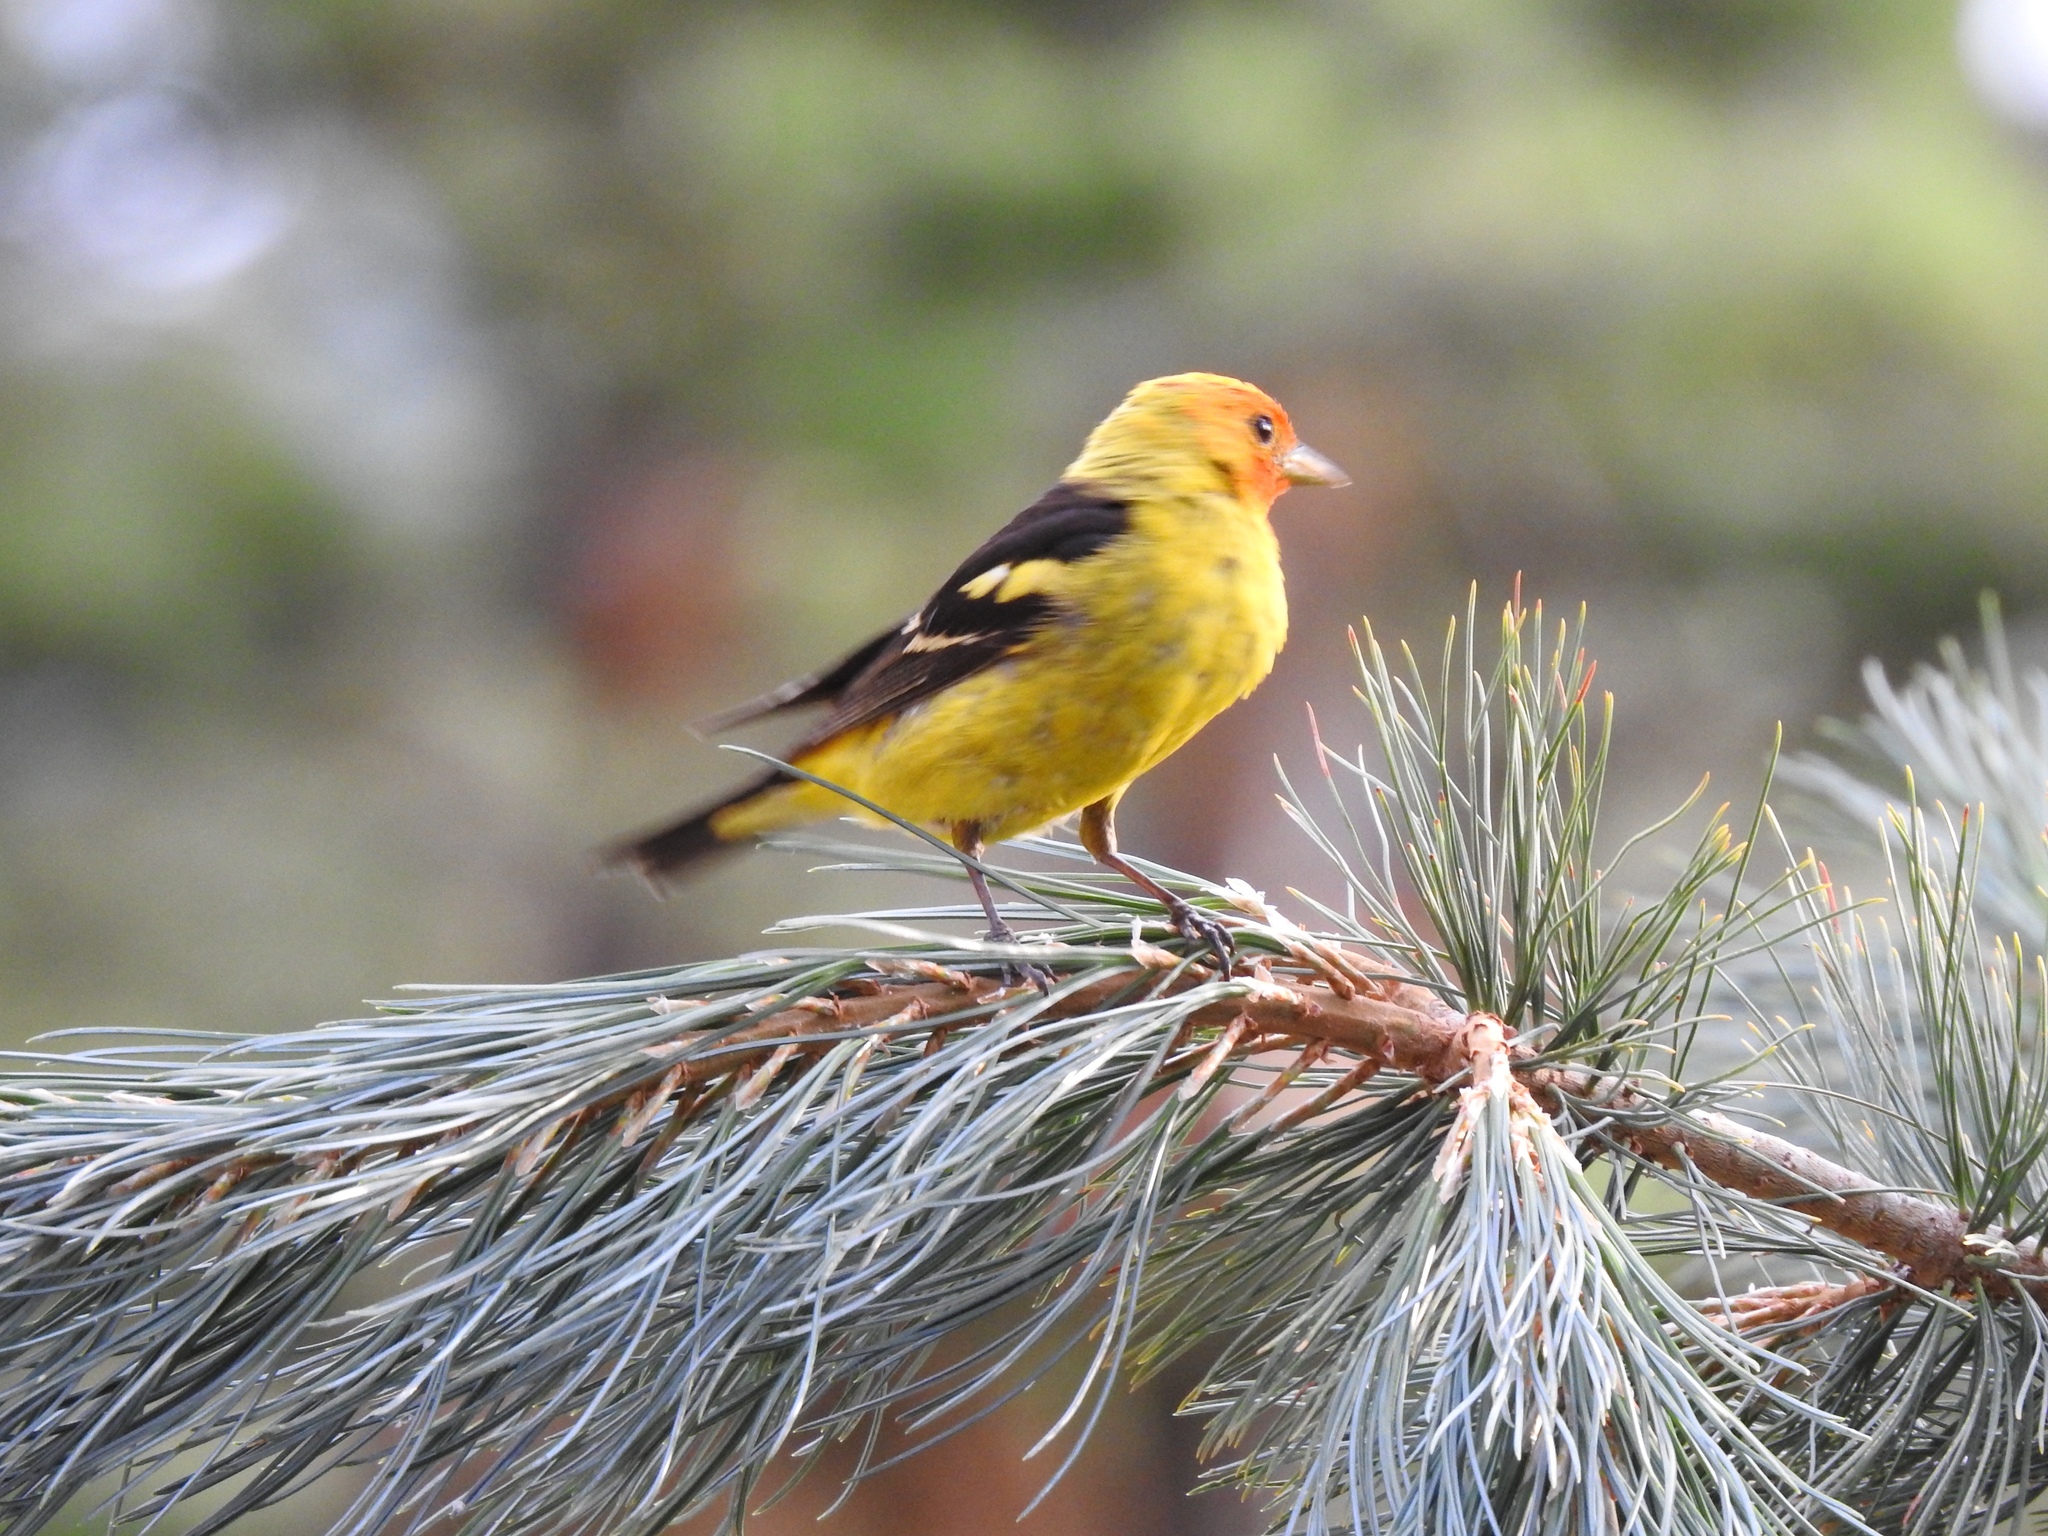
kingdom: Animalia
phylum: Chordata
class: Aves
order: Passeriformes
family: Cardinalidae
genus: Piranga
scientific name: Piranga ludoviciana
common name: Western tanager
